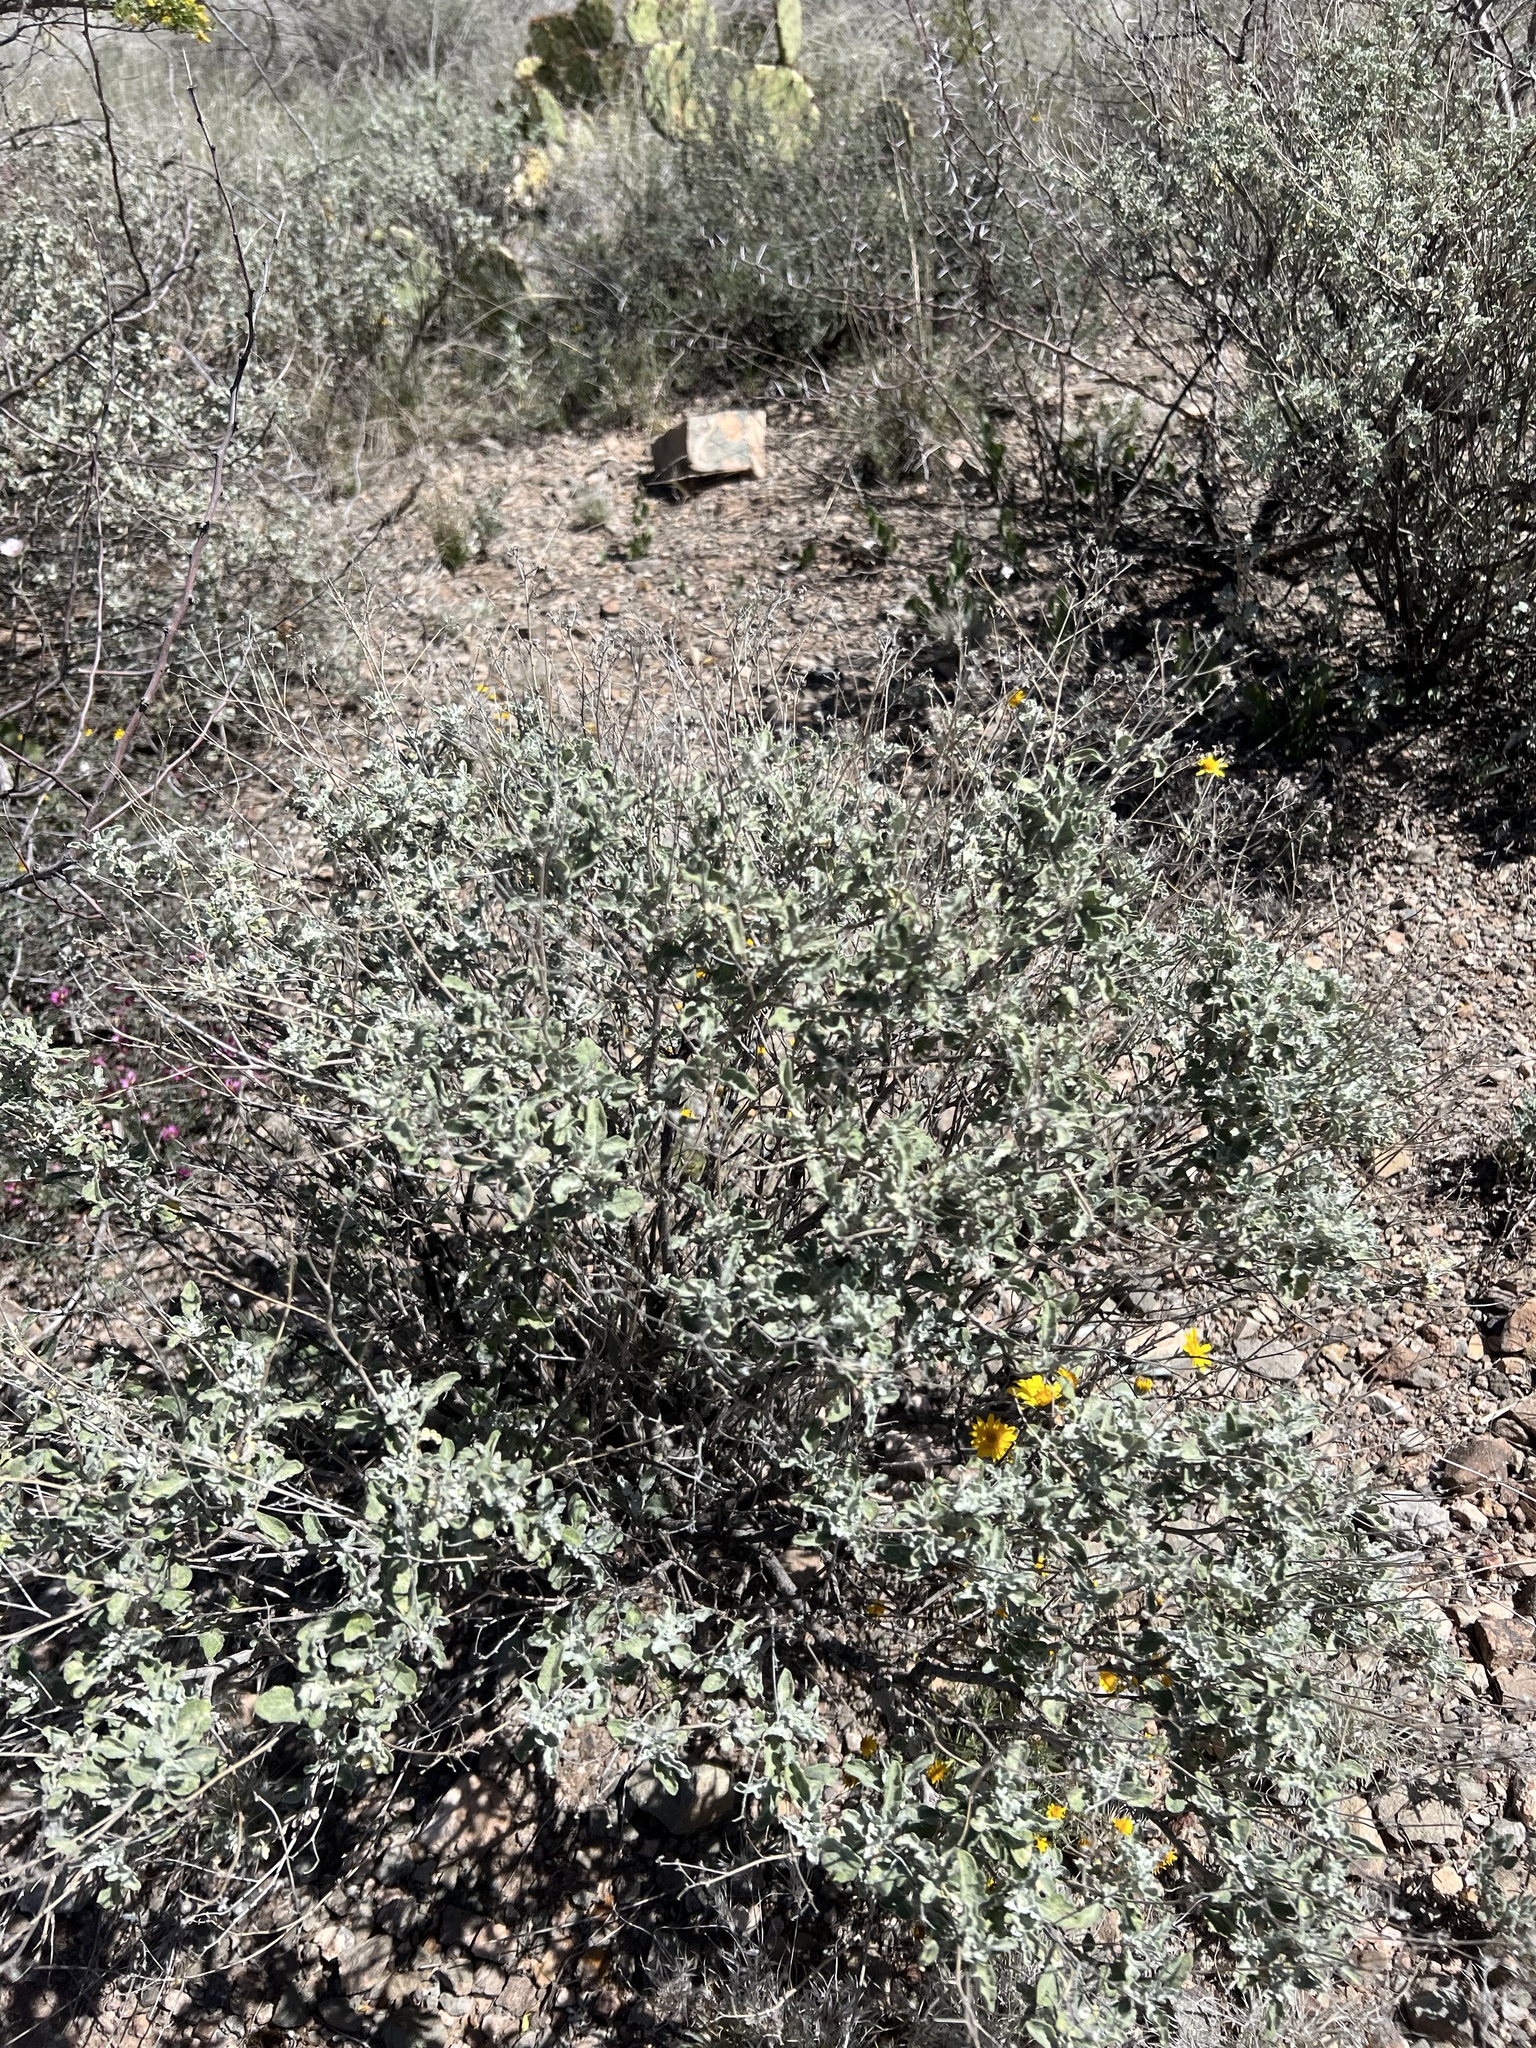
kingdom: Plantae
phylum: Tracheophyta
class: Magnoliopsida
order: Asterales
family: Asteraceae
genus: Parthenium
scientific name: Parthenium incanum
